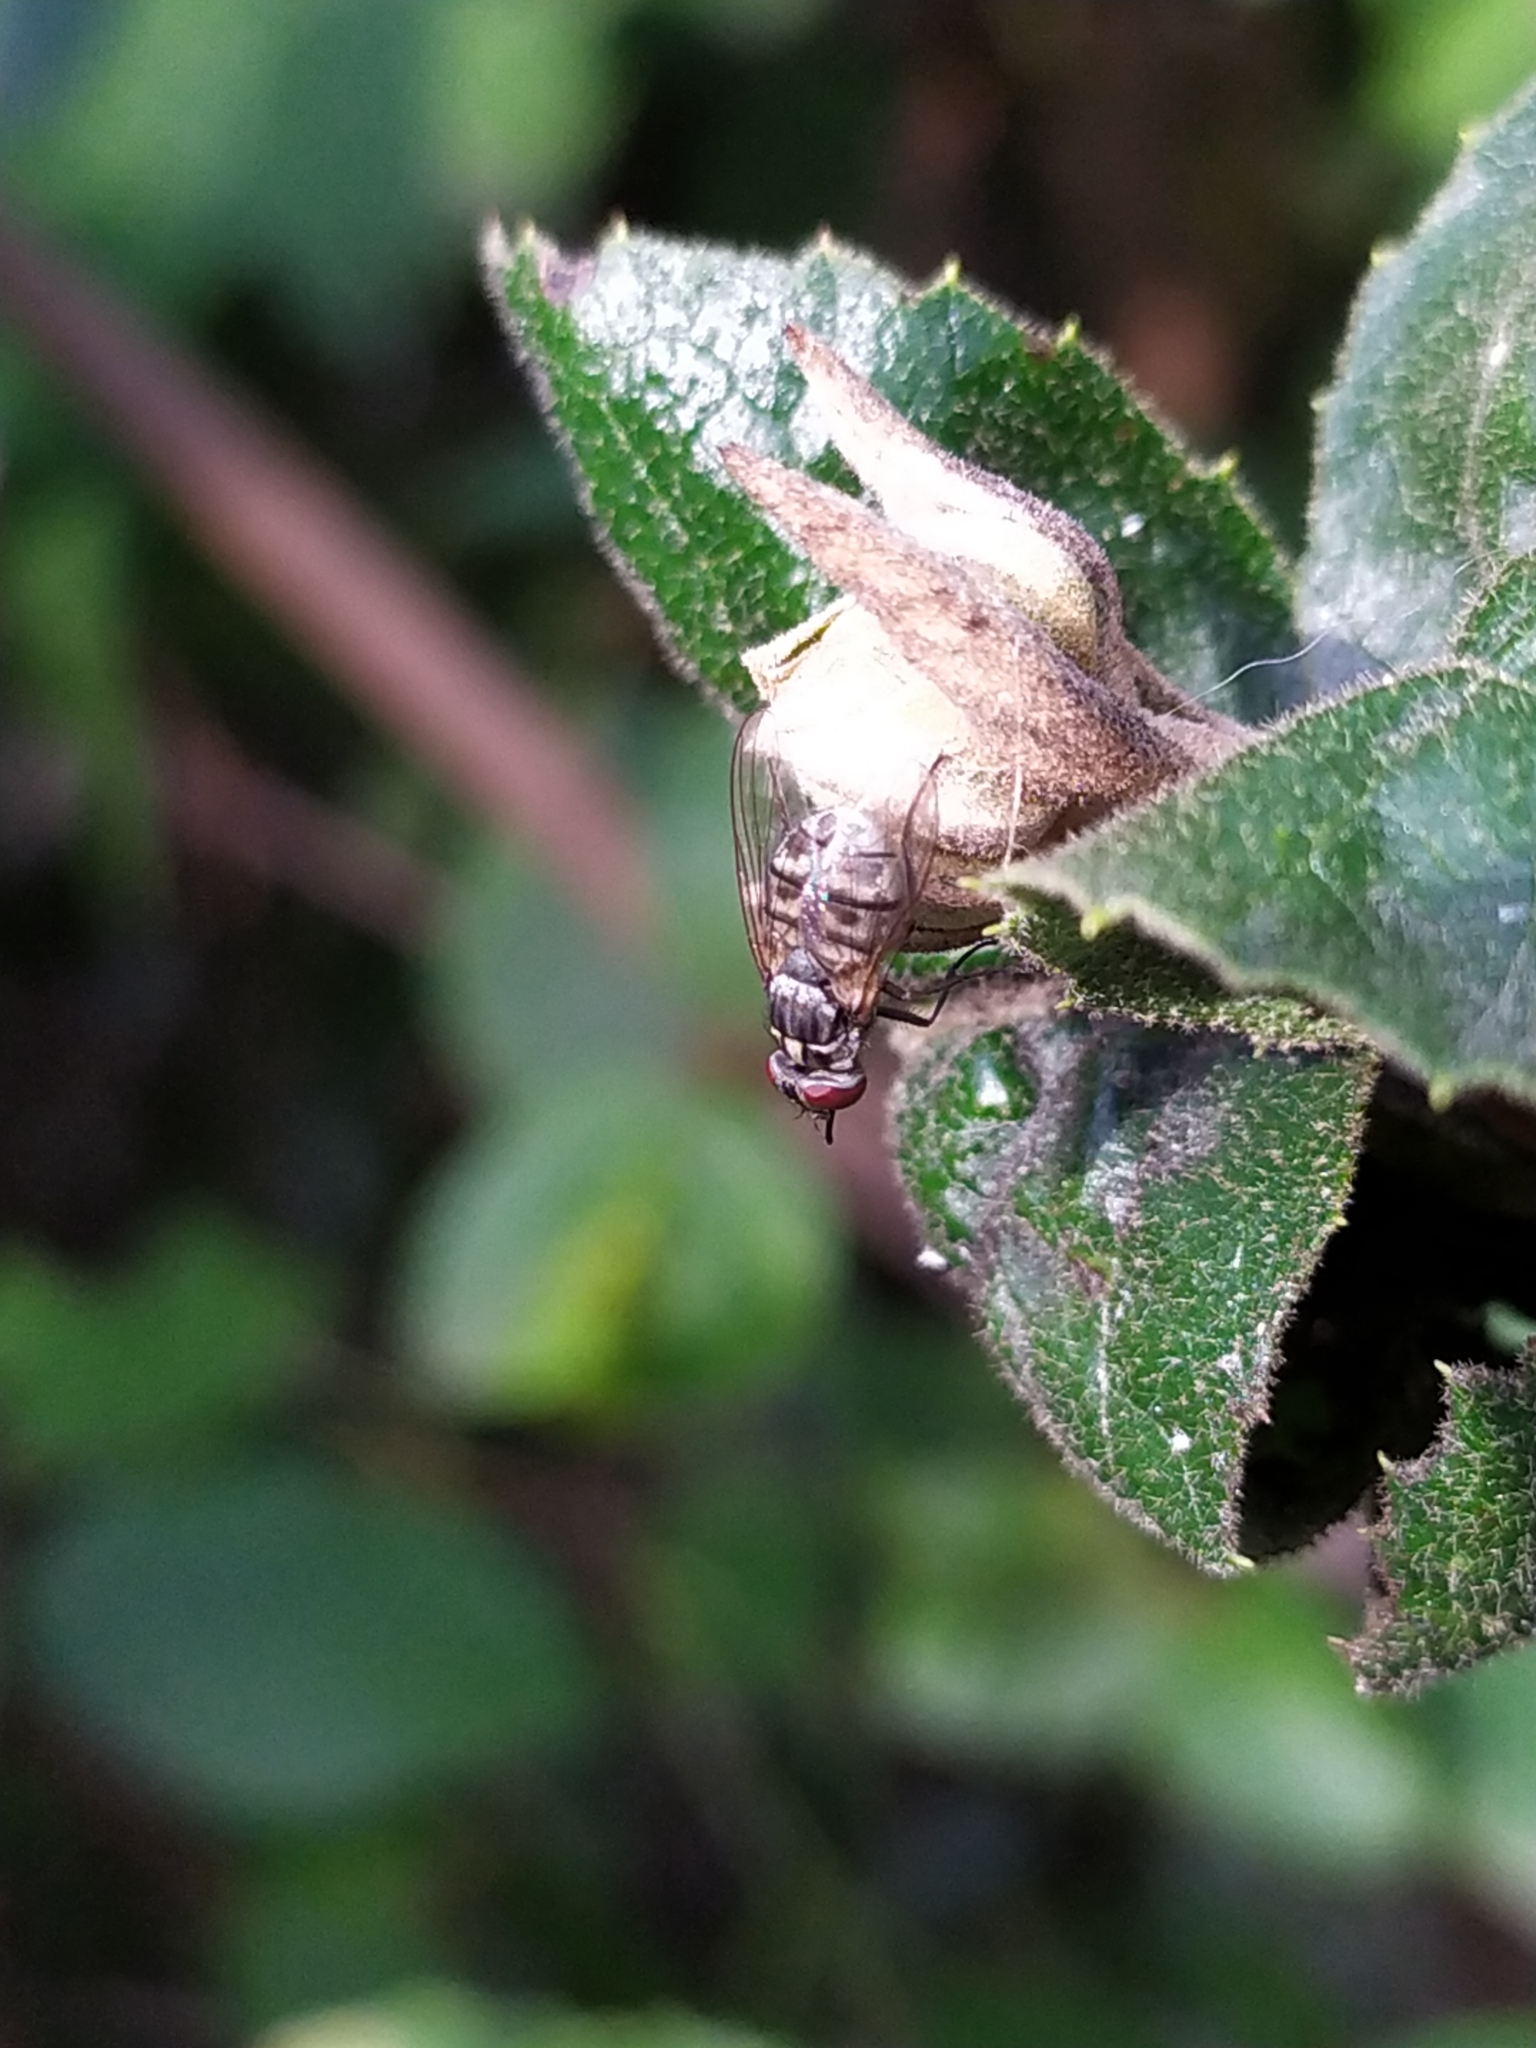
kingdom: Animalia
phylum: Arthropoda
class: Insecta
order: Diptera
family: Muscidae
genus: Stomoxys
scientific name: Stomoxys calcitrans
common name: Stable fly
